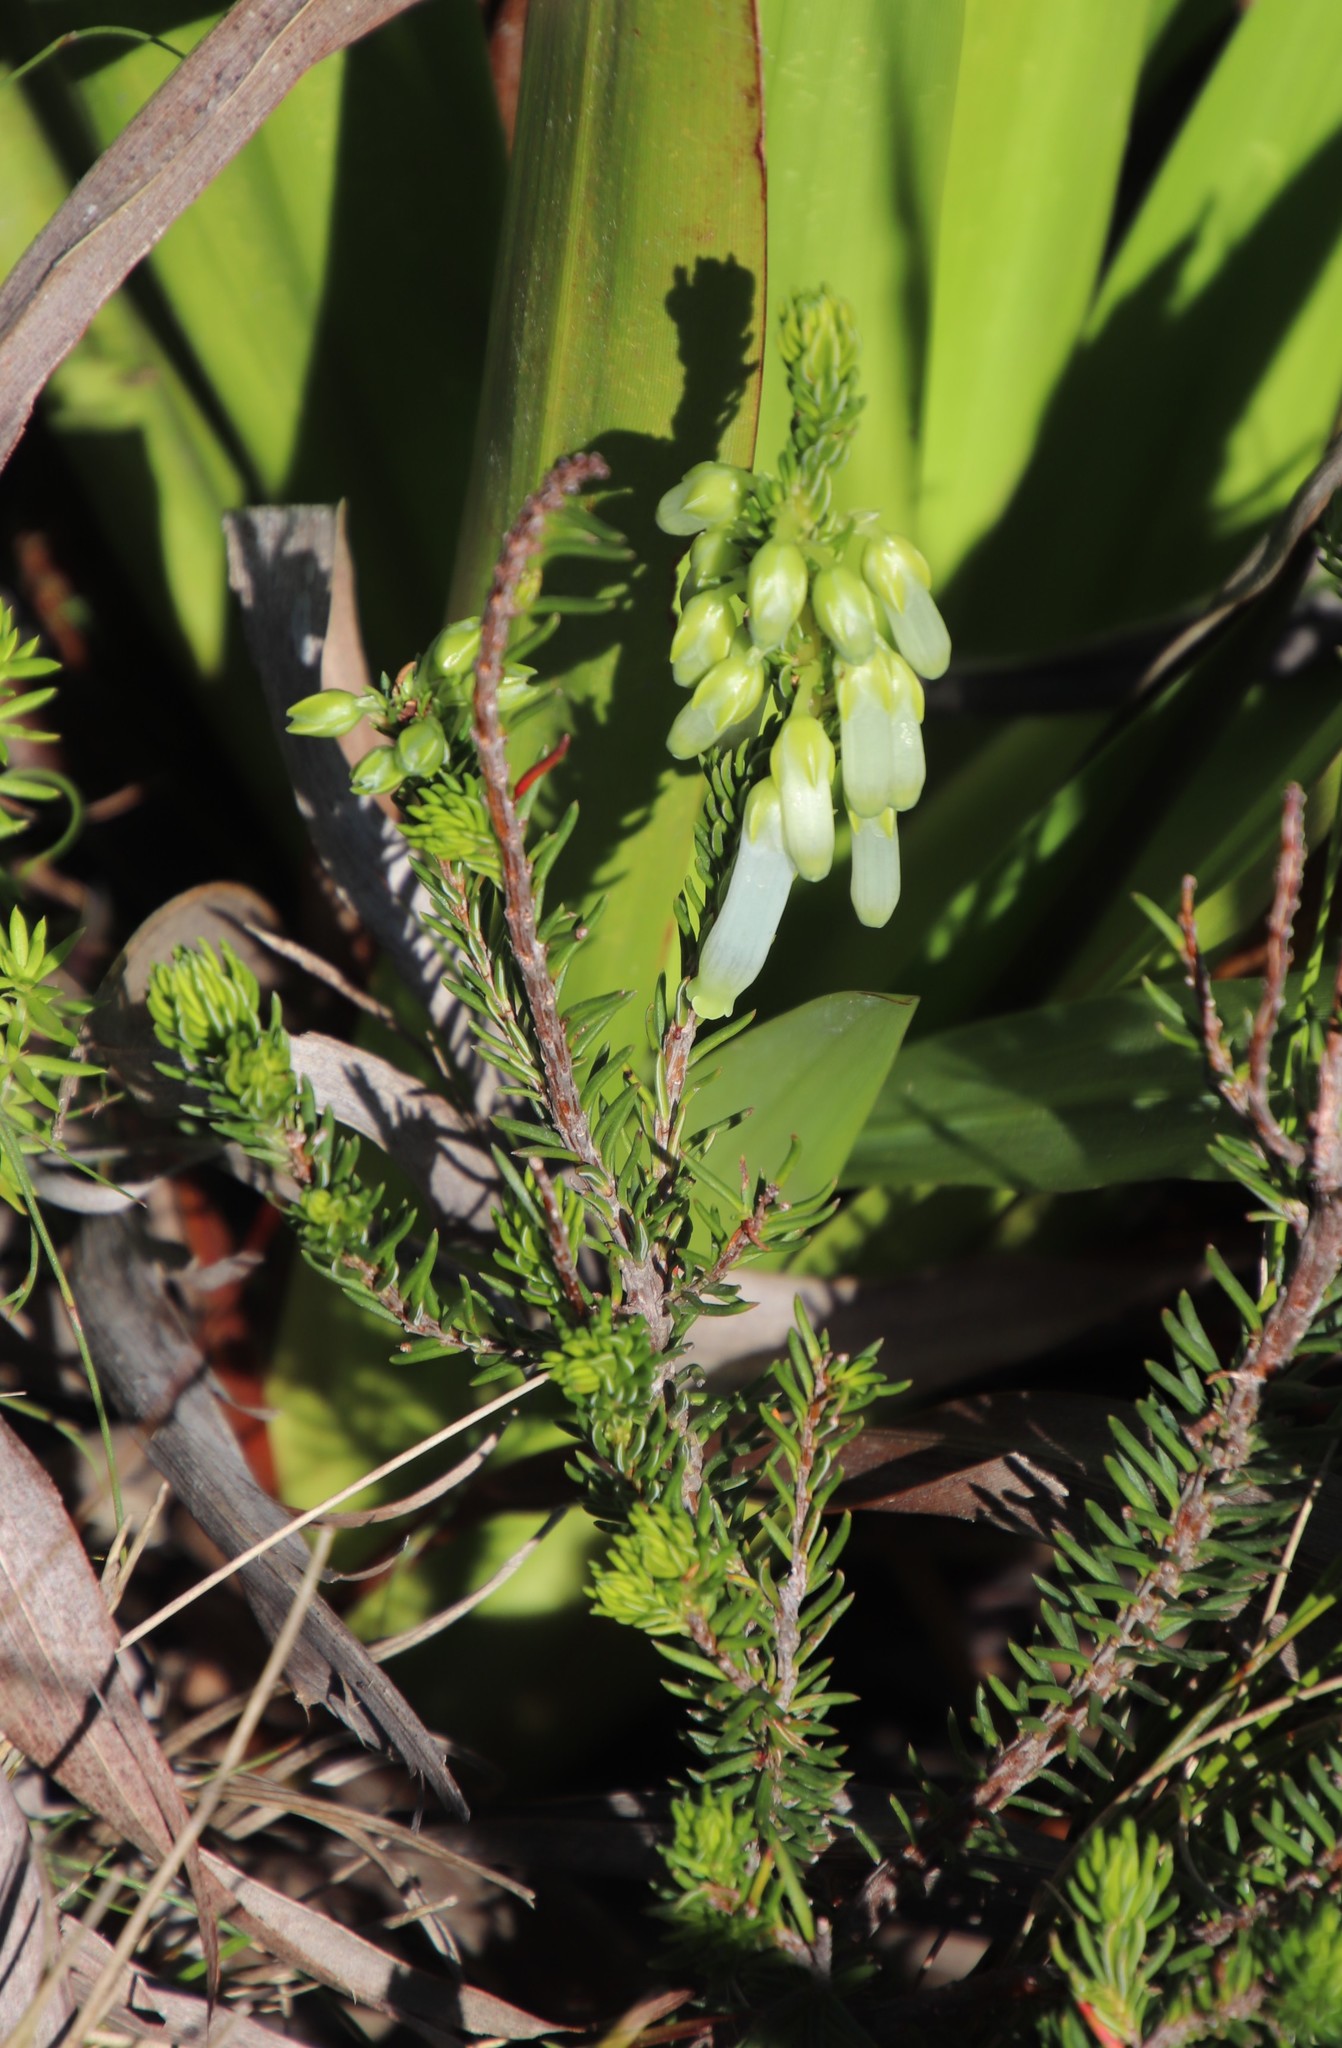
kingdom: Plantae
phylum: Tracheophyta
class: Magnoliopsida
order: Ericales
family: Ericaceae
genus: Erica
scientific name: Erica mammosa
